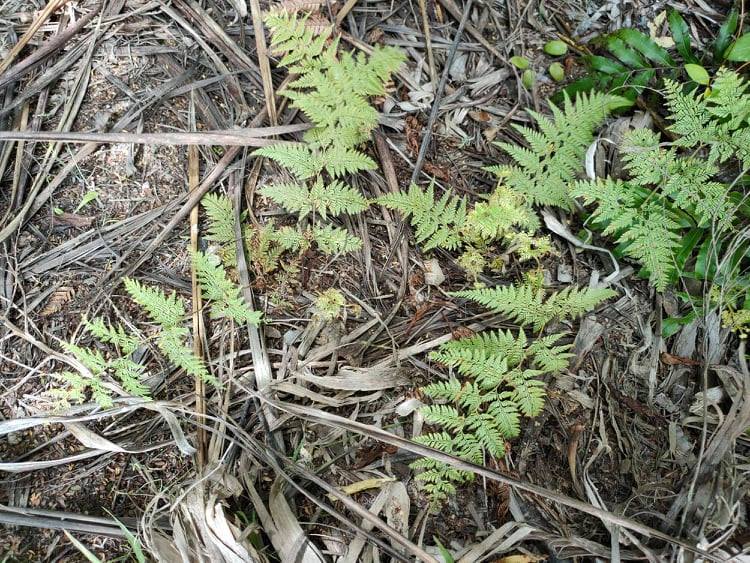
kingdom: Plantae
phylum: Tracheophyta
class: Polypodiopsida
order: Polypodiales
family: Dennstaedtiaceae
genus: Paesia
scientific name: Paesia scaberula
